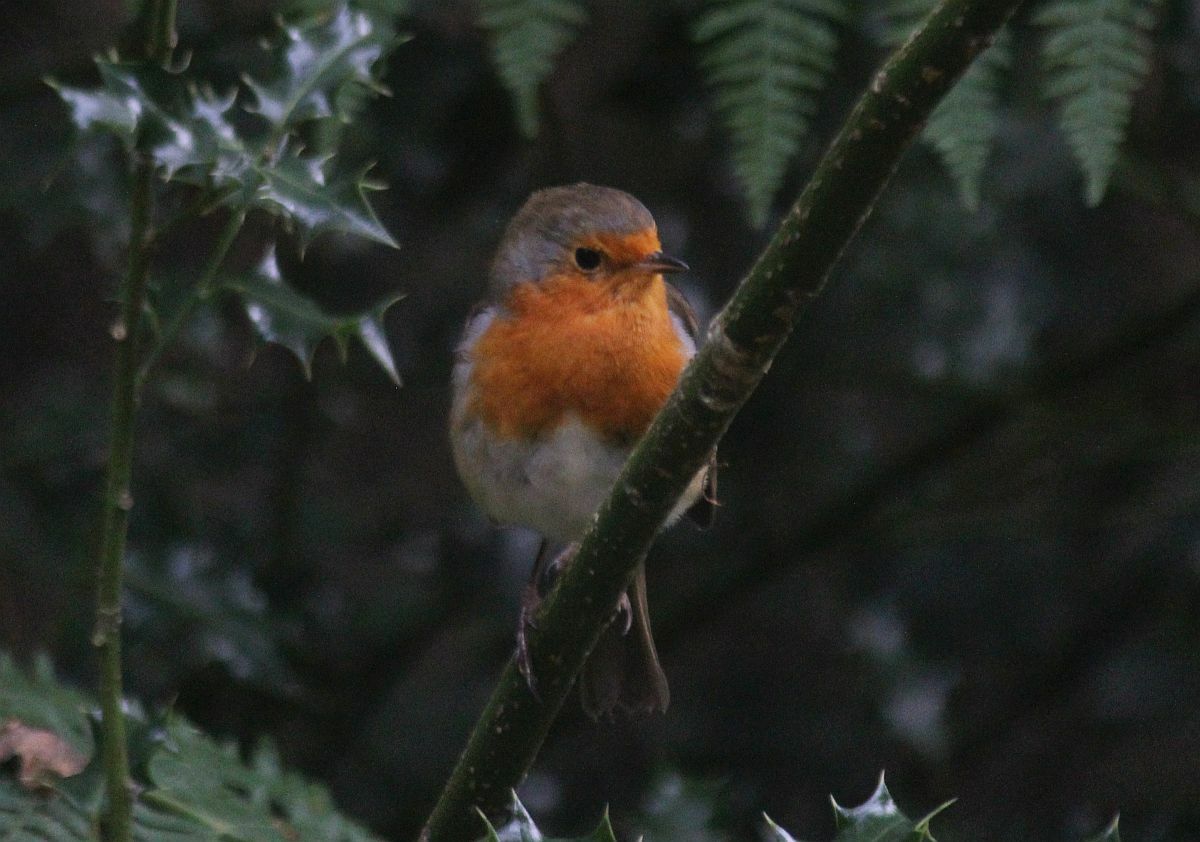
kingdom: Animalia
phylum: Chordata
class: Aves
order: Passeriformes
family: Muscicapidae
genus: Erithacus
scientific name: Erithacus rubecula
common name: European robin
